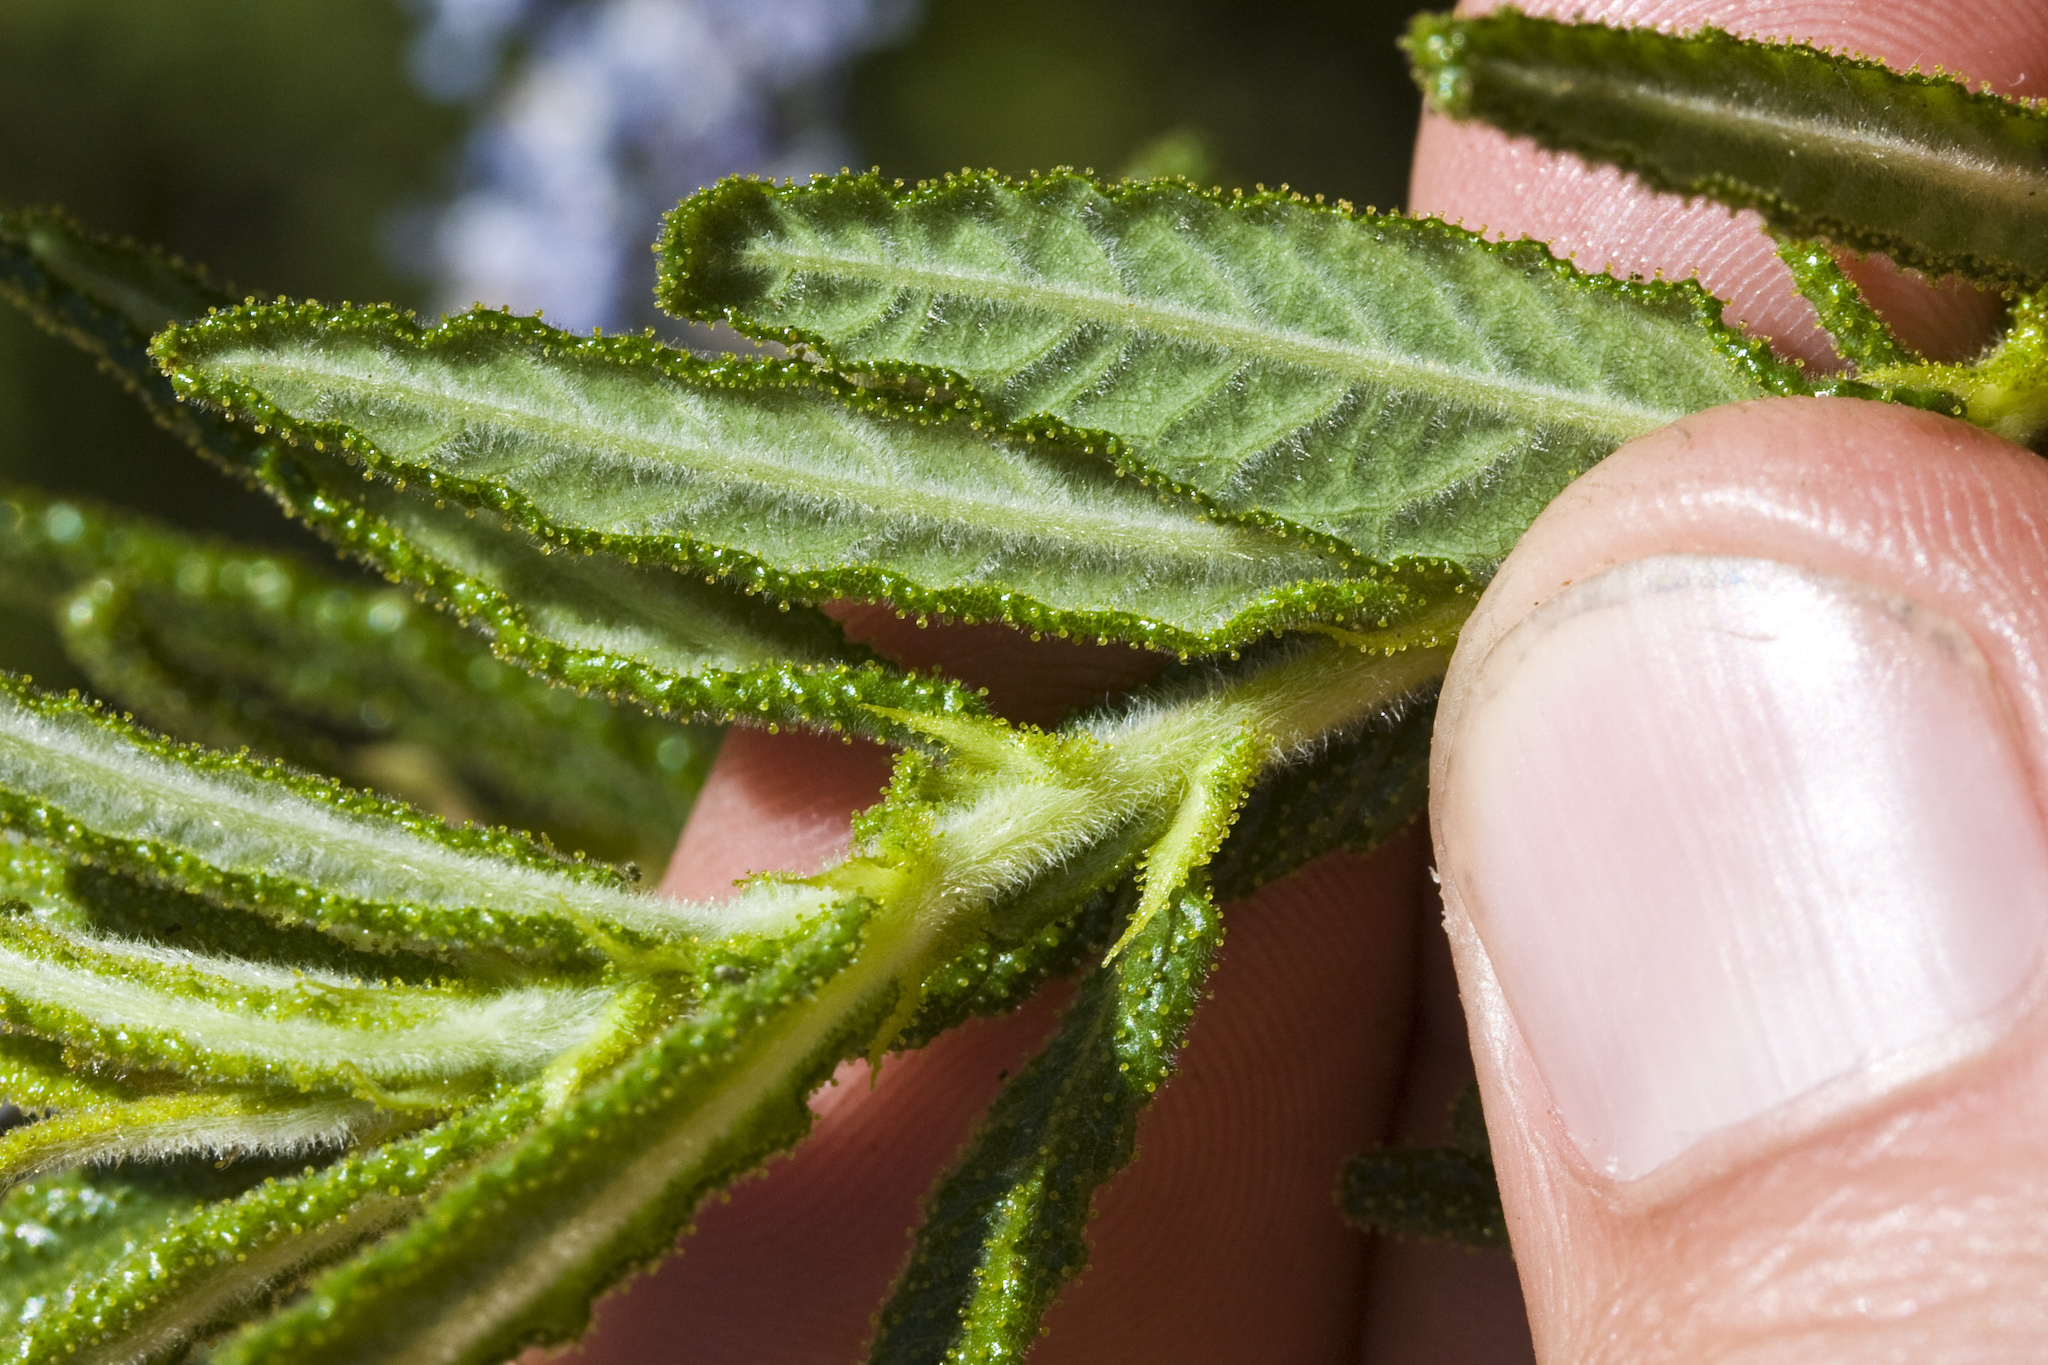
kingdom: Plantae
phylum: Tracheophyta
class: Magnoliopsida
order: Rosales
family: Rhamnaceae
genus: Ceanothus
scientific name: Ceanothus papillosus
